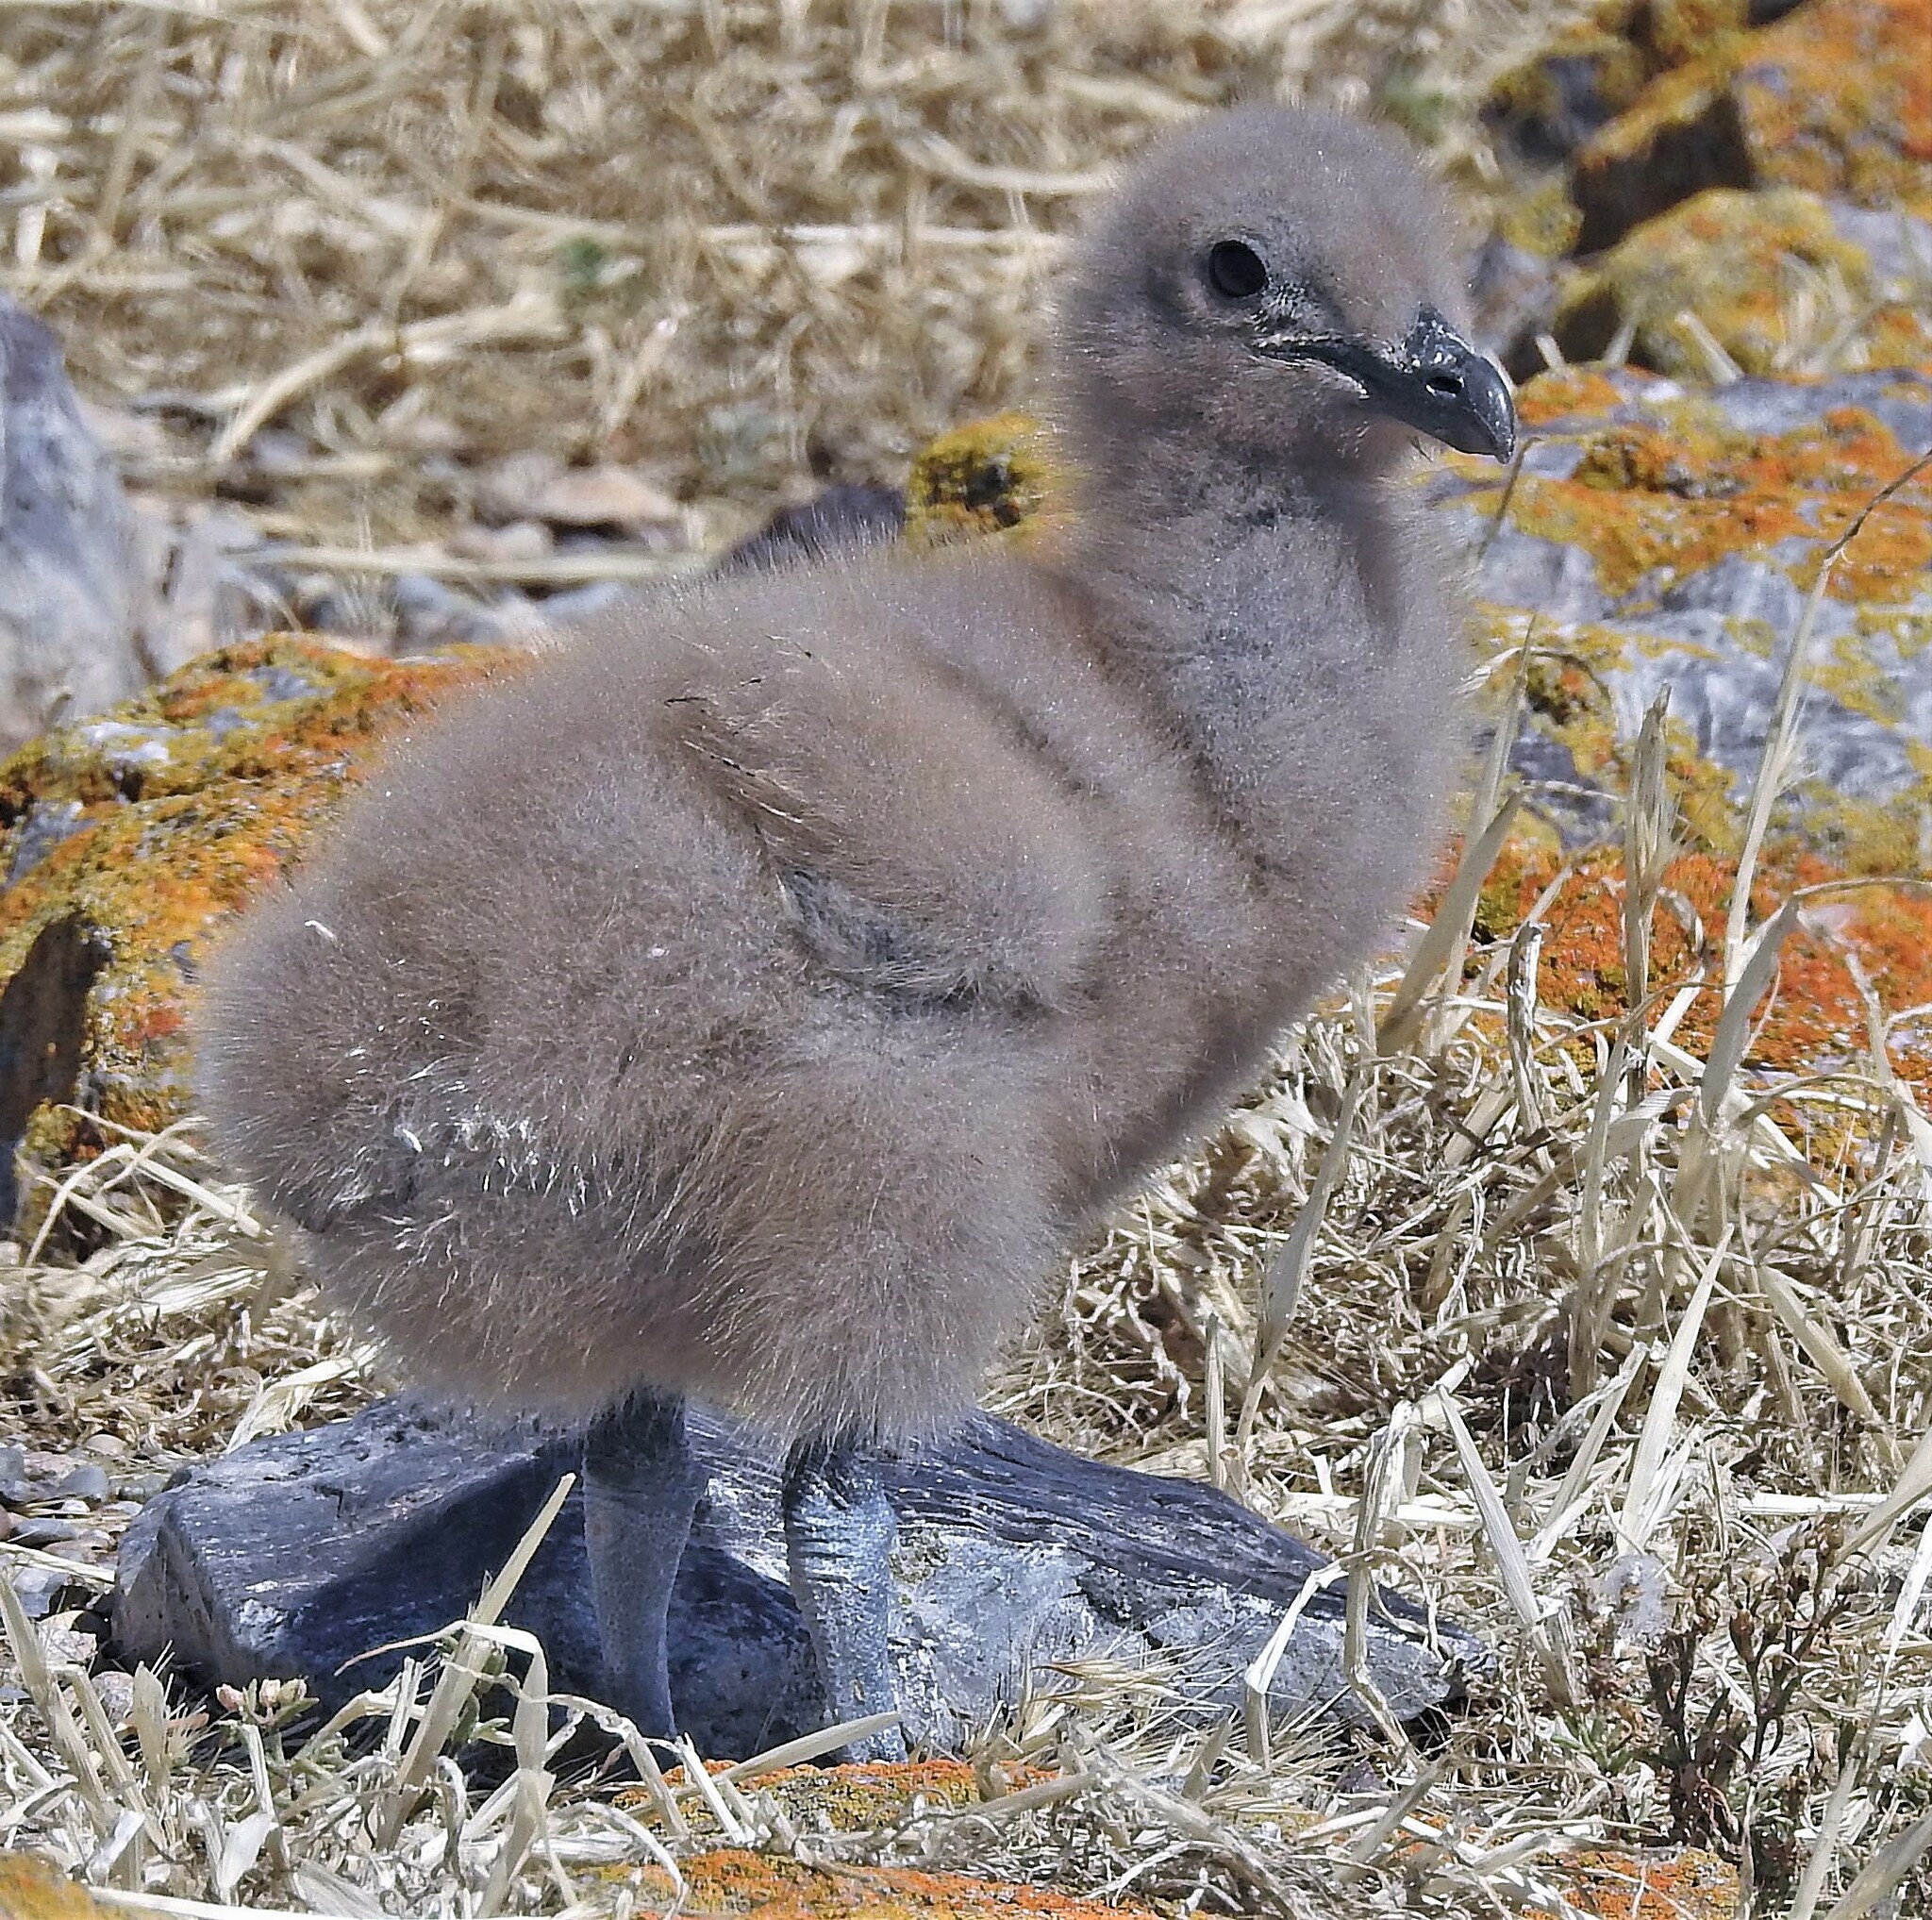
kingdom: Animalia
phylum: Chordata
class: Aves
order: Charadriiformes
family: Stercorariidae
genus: Stercorarius
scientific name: Stercorarius antarcticus
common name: Brown skua
